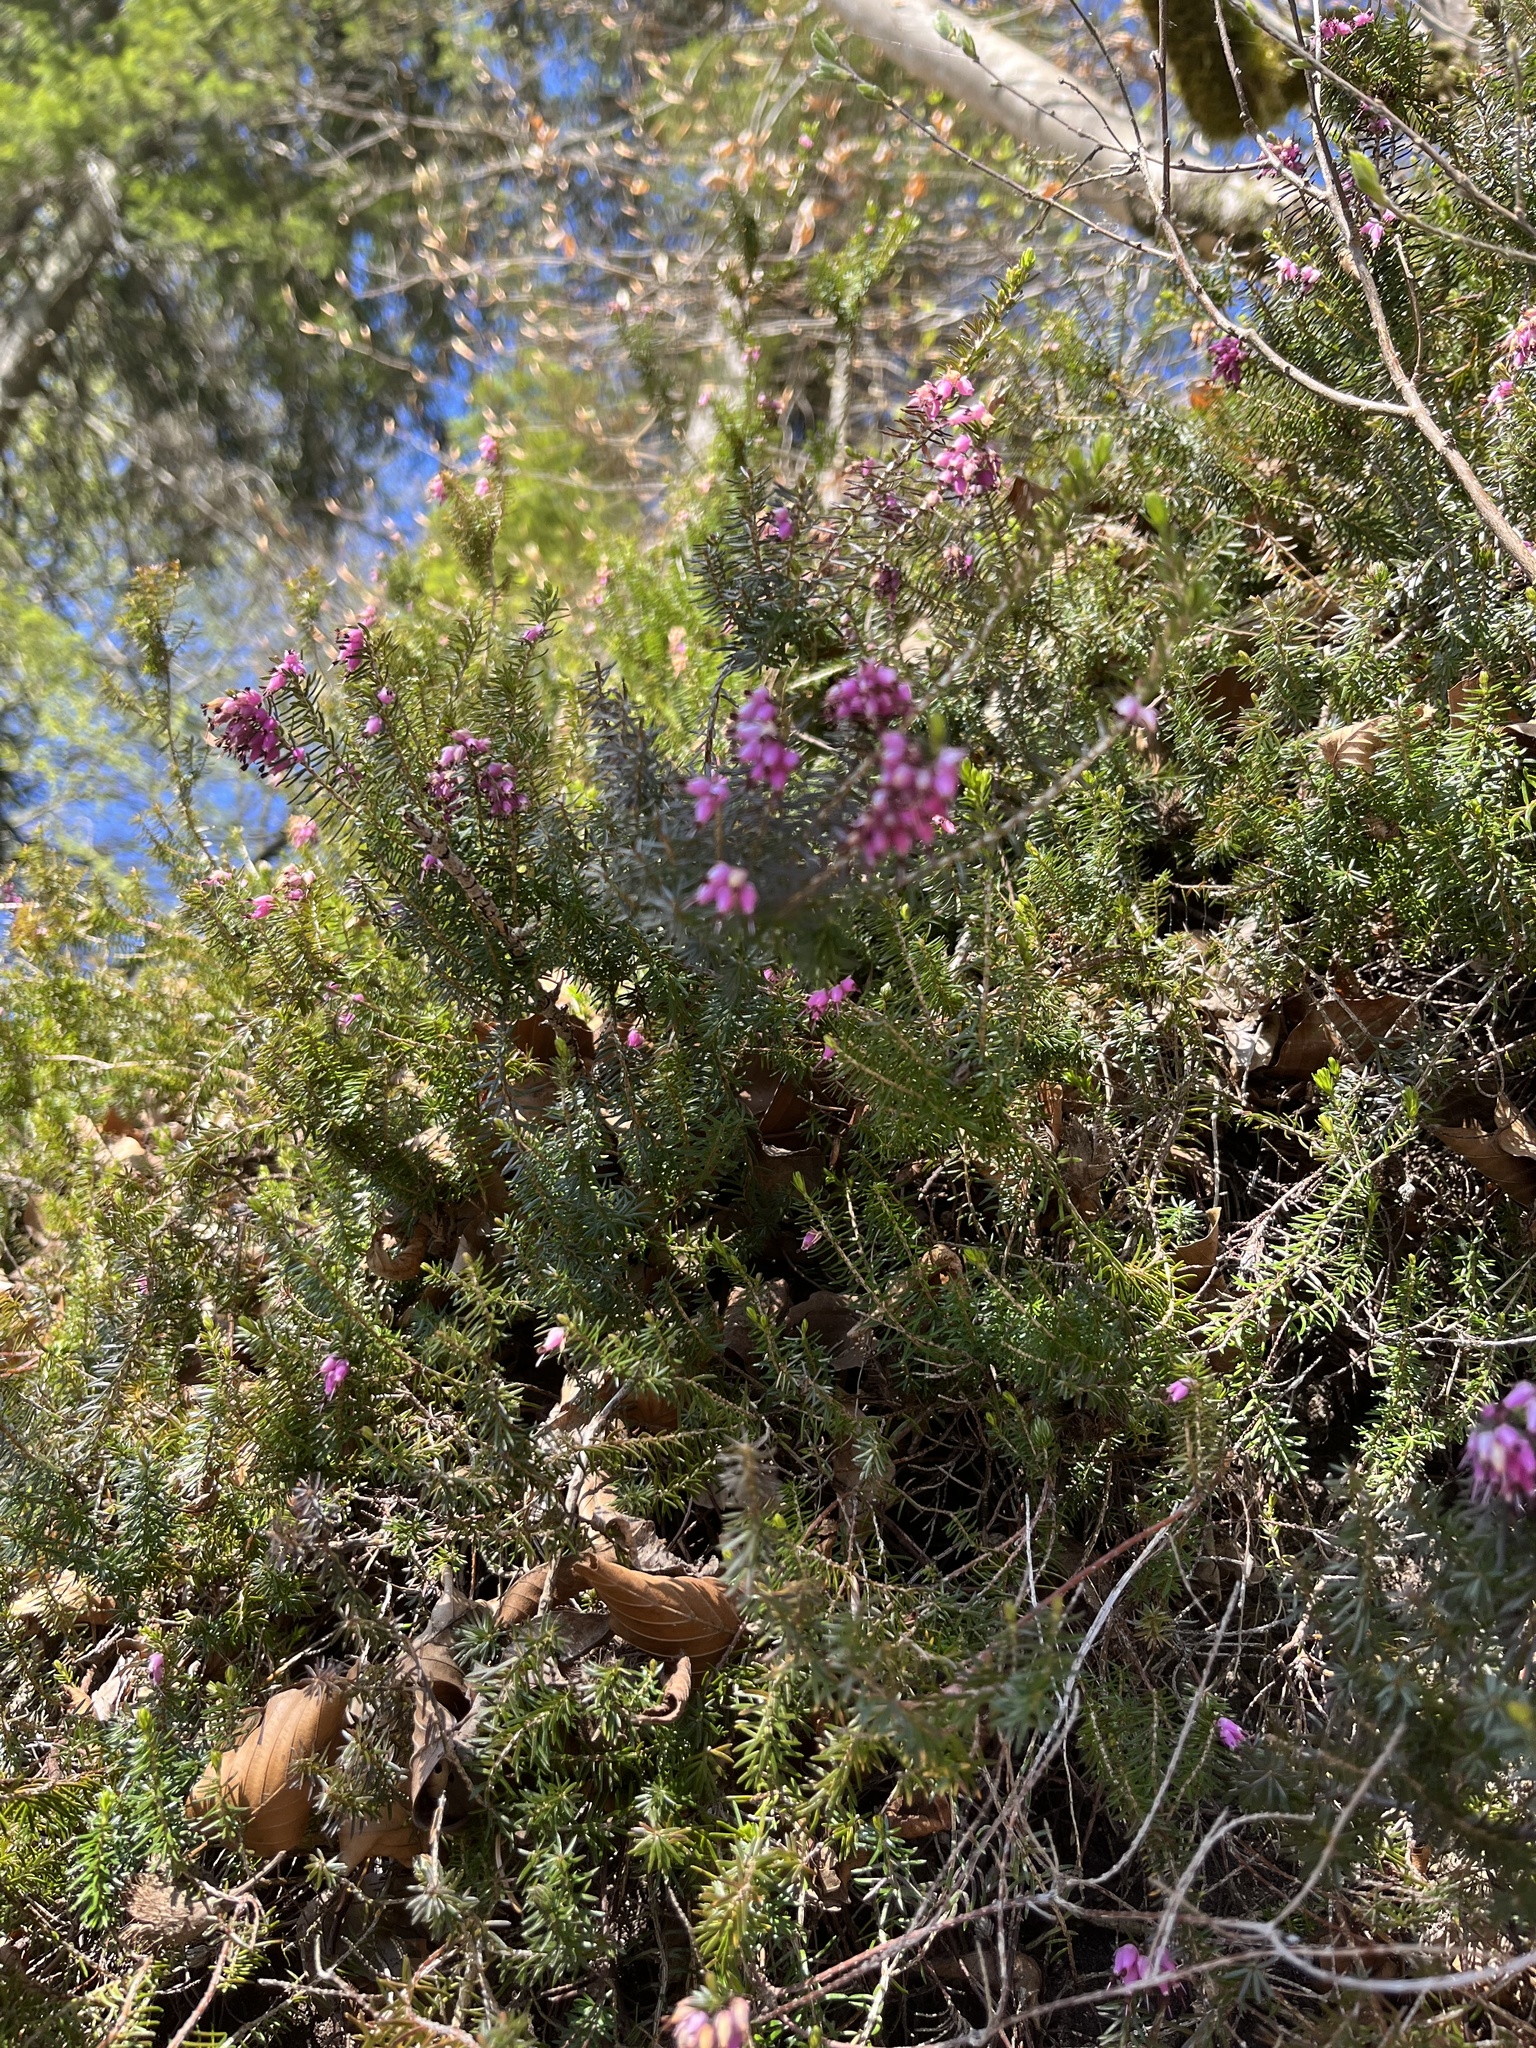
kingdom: Plantae
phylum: Tracheophyta
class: Magnoliopsida
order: Ericales
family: Ericaceae
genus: Erica
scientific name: Erica carnea
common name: Winter heath
